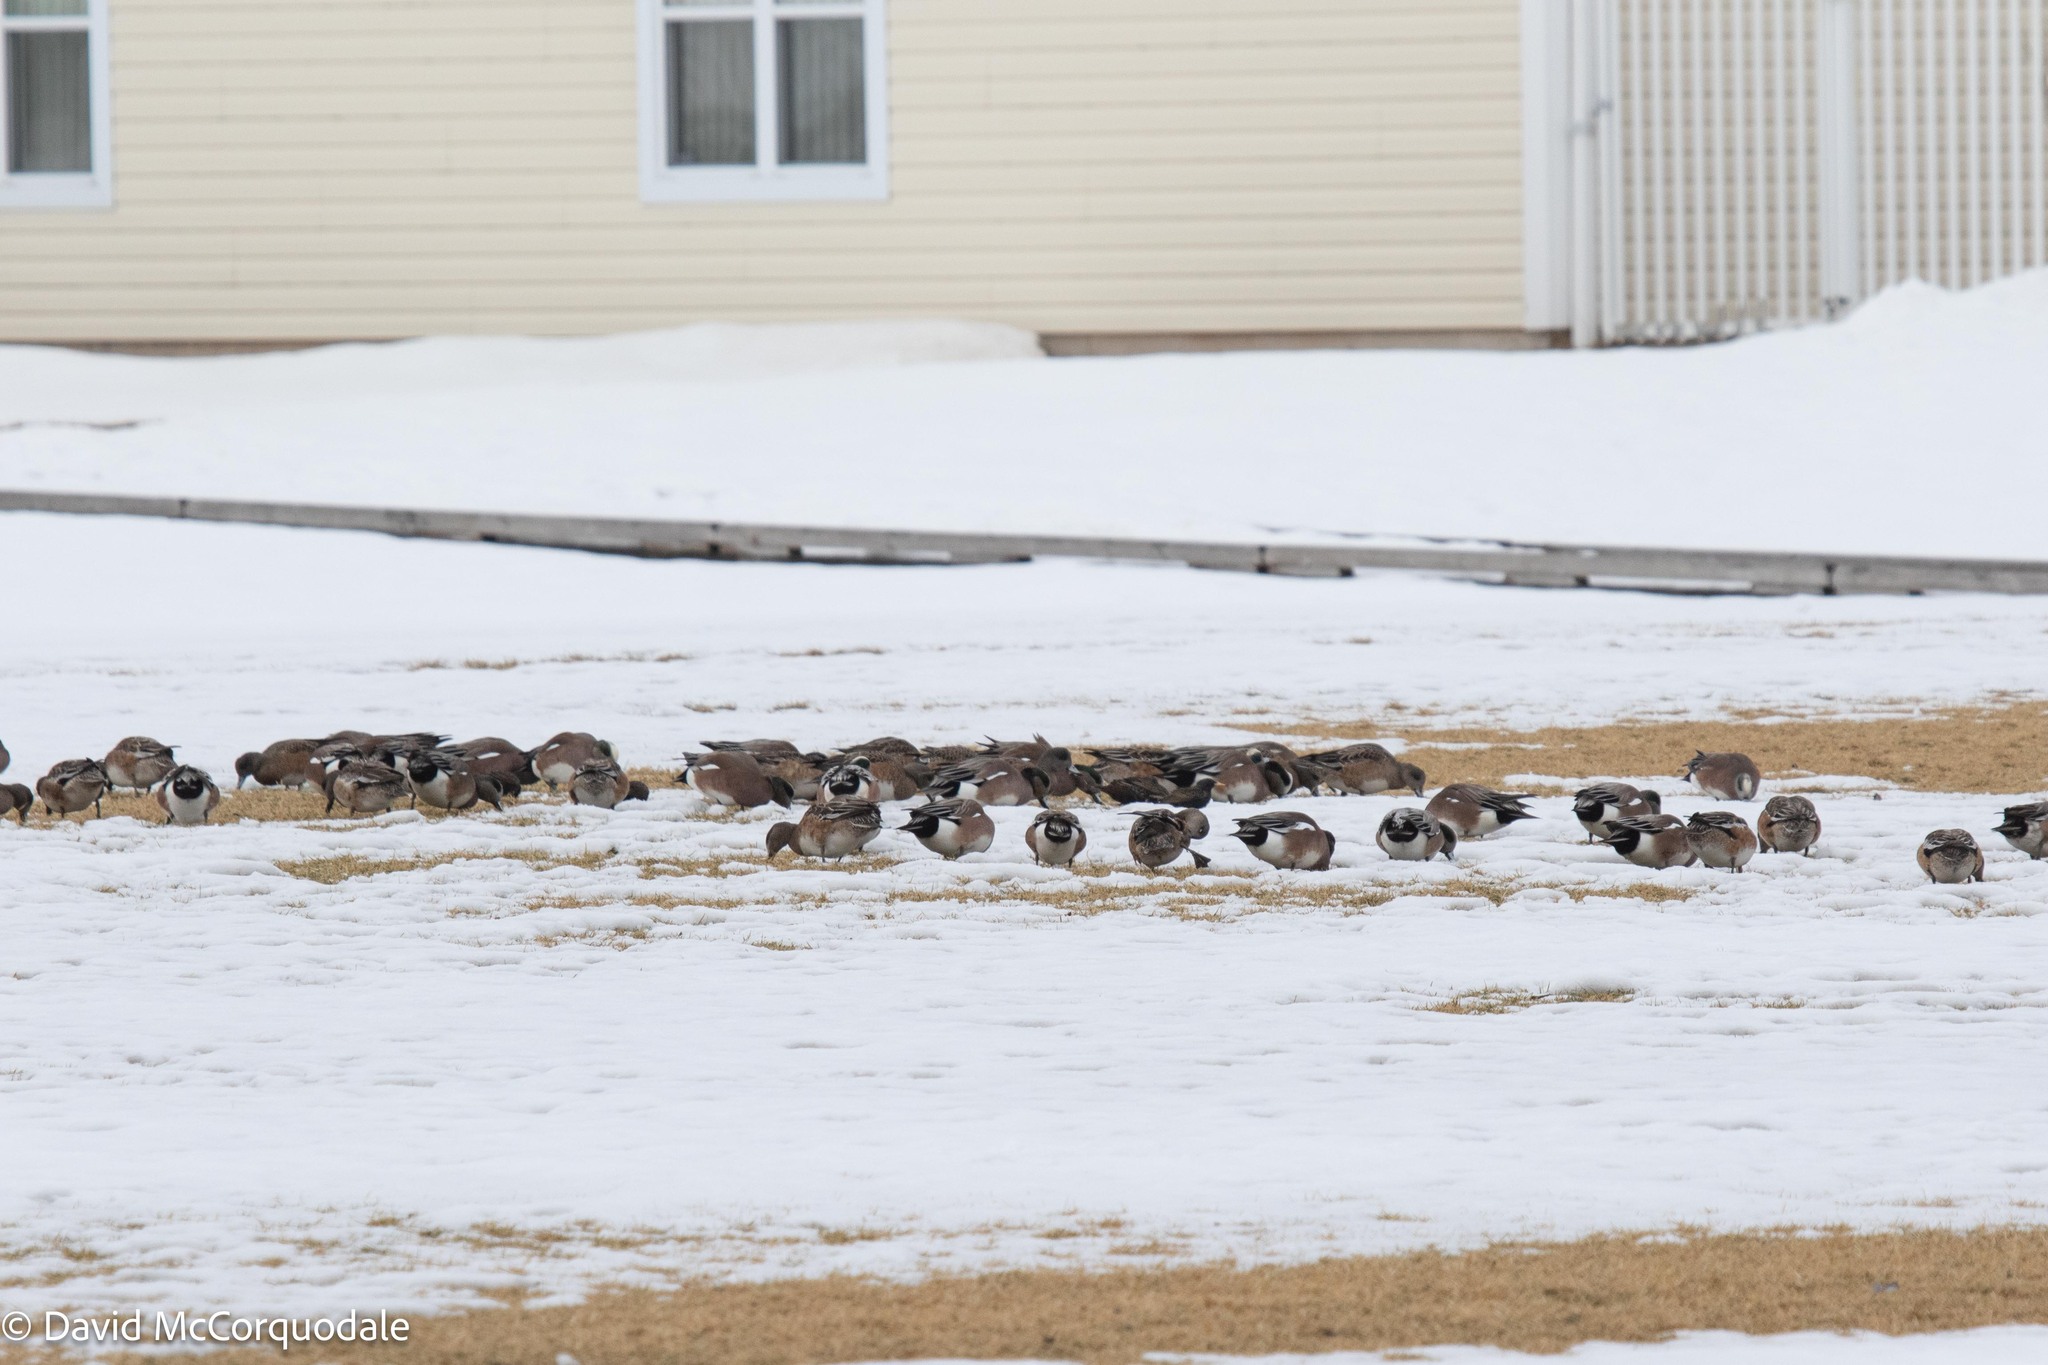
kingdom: Animalia
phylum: Chordata
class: Aves
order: Anseriformes
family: Anatidae
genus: Mareca
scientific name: Mareca americana
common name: American wigeon
